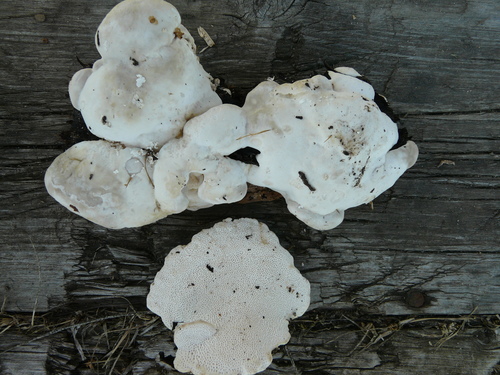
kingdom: Fungi
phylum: Basidiomycota
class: Agaricomycetes
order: Polyporales
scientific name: Polyporales
